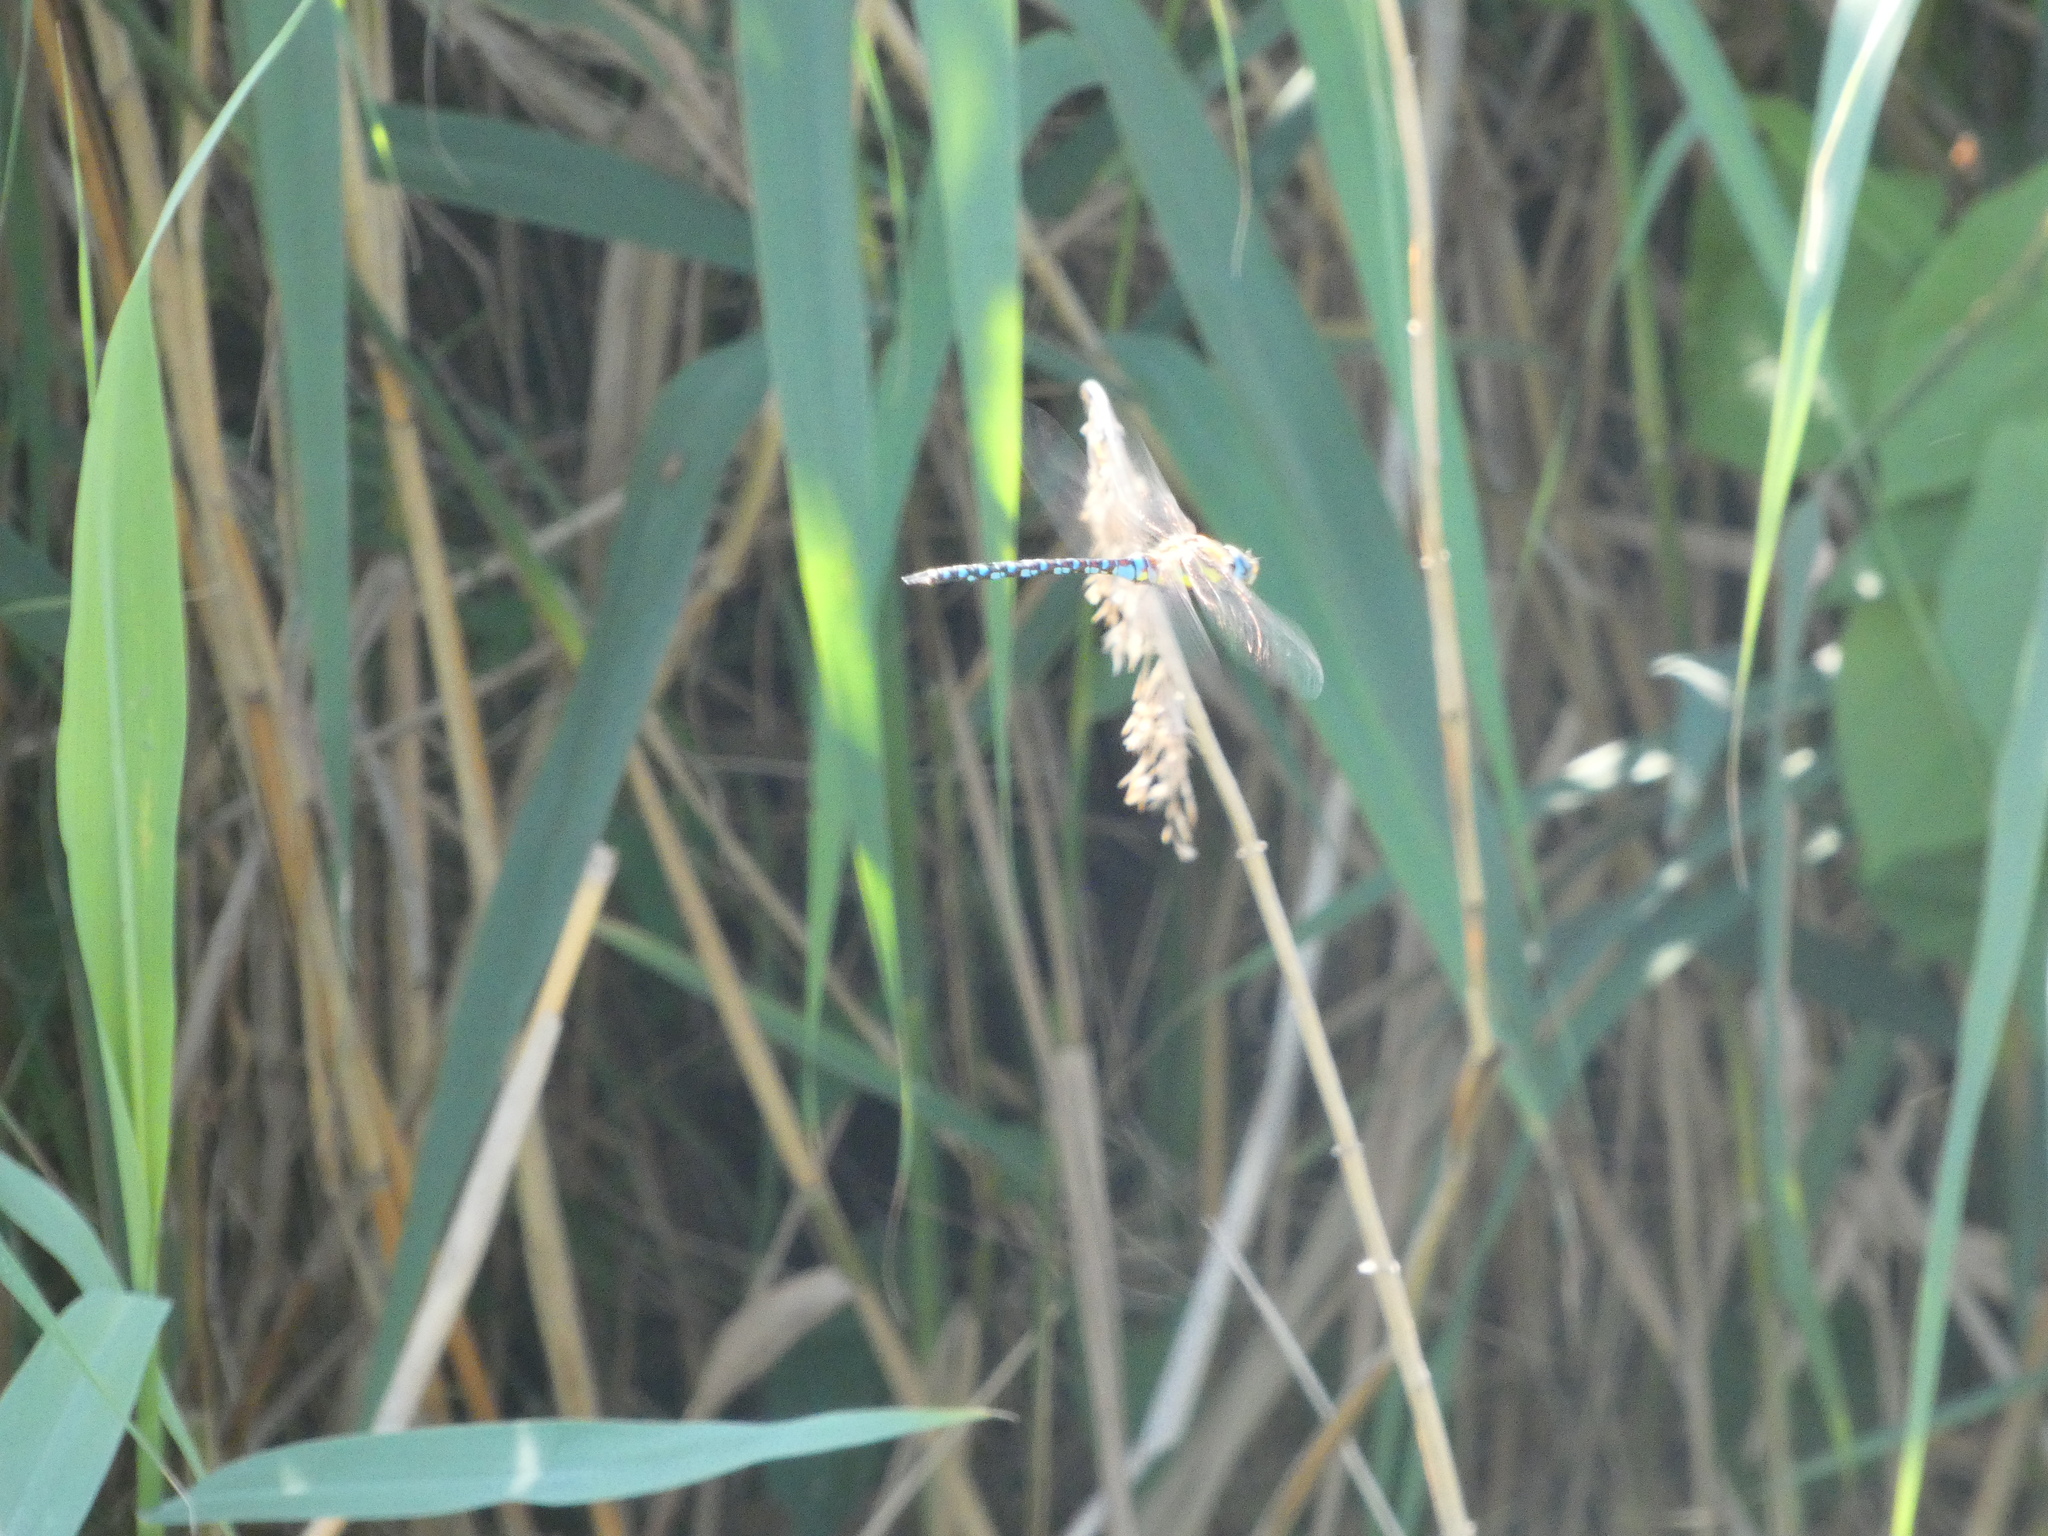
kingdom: Animalia
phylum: Arthropoda
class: Insecta
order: Odonata
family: Aeshnidae
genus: Aeshna
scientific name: Aeshna mixta
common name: Migrant hawker
